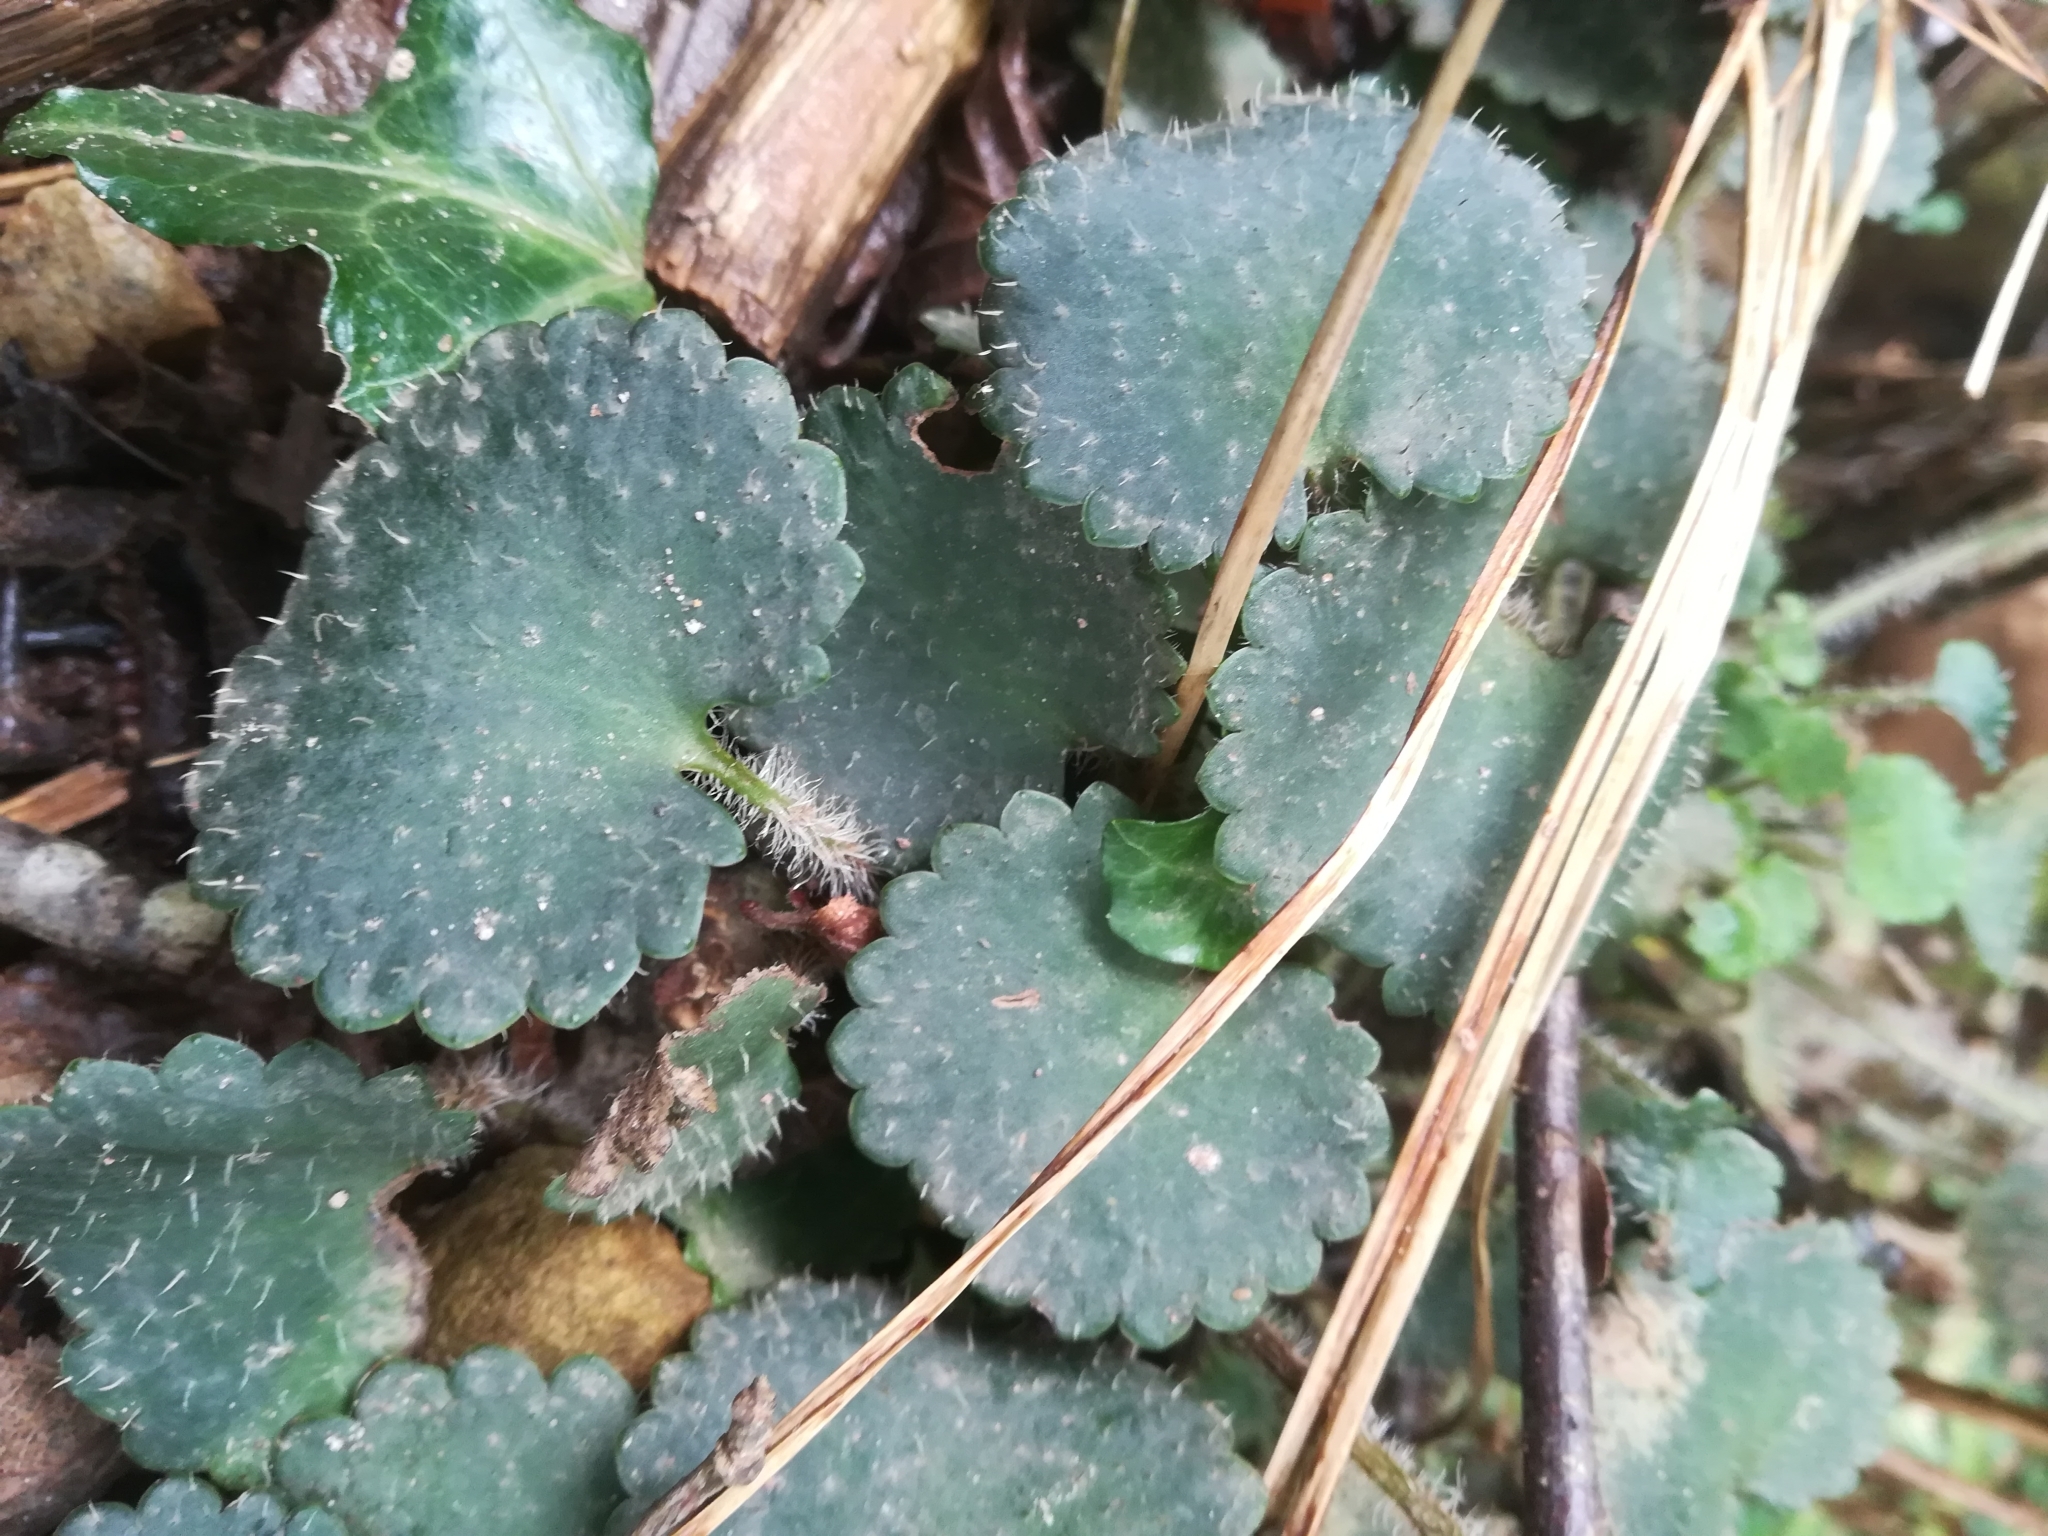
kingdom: Plantae
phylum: Tracheophyta
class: Magnoliopsida
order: Saxifragales
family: Saxifragaceae
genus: Saxifraga
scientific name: Saxifraga hirsuta
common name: Kidney saxifrage
